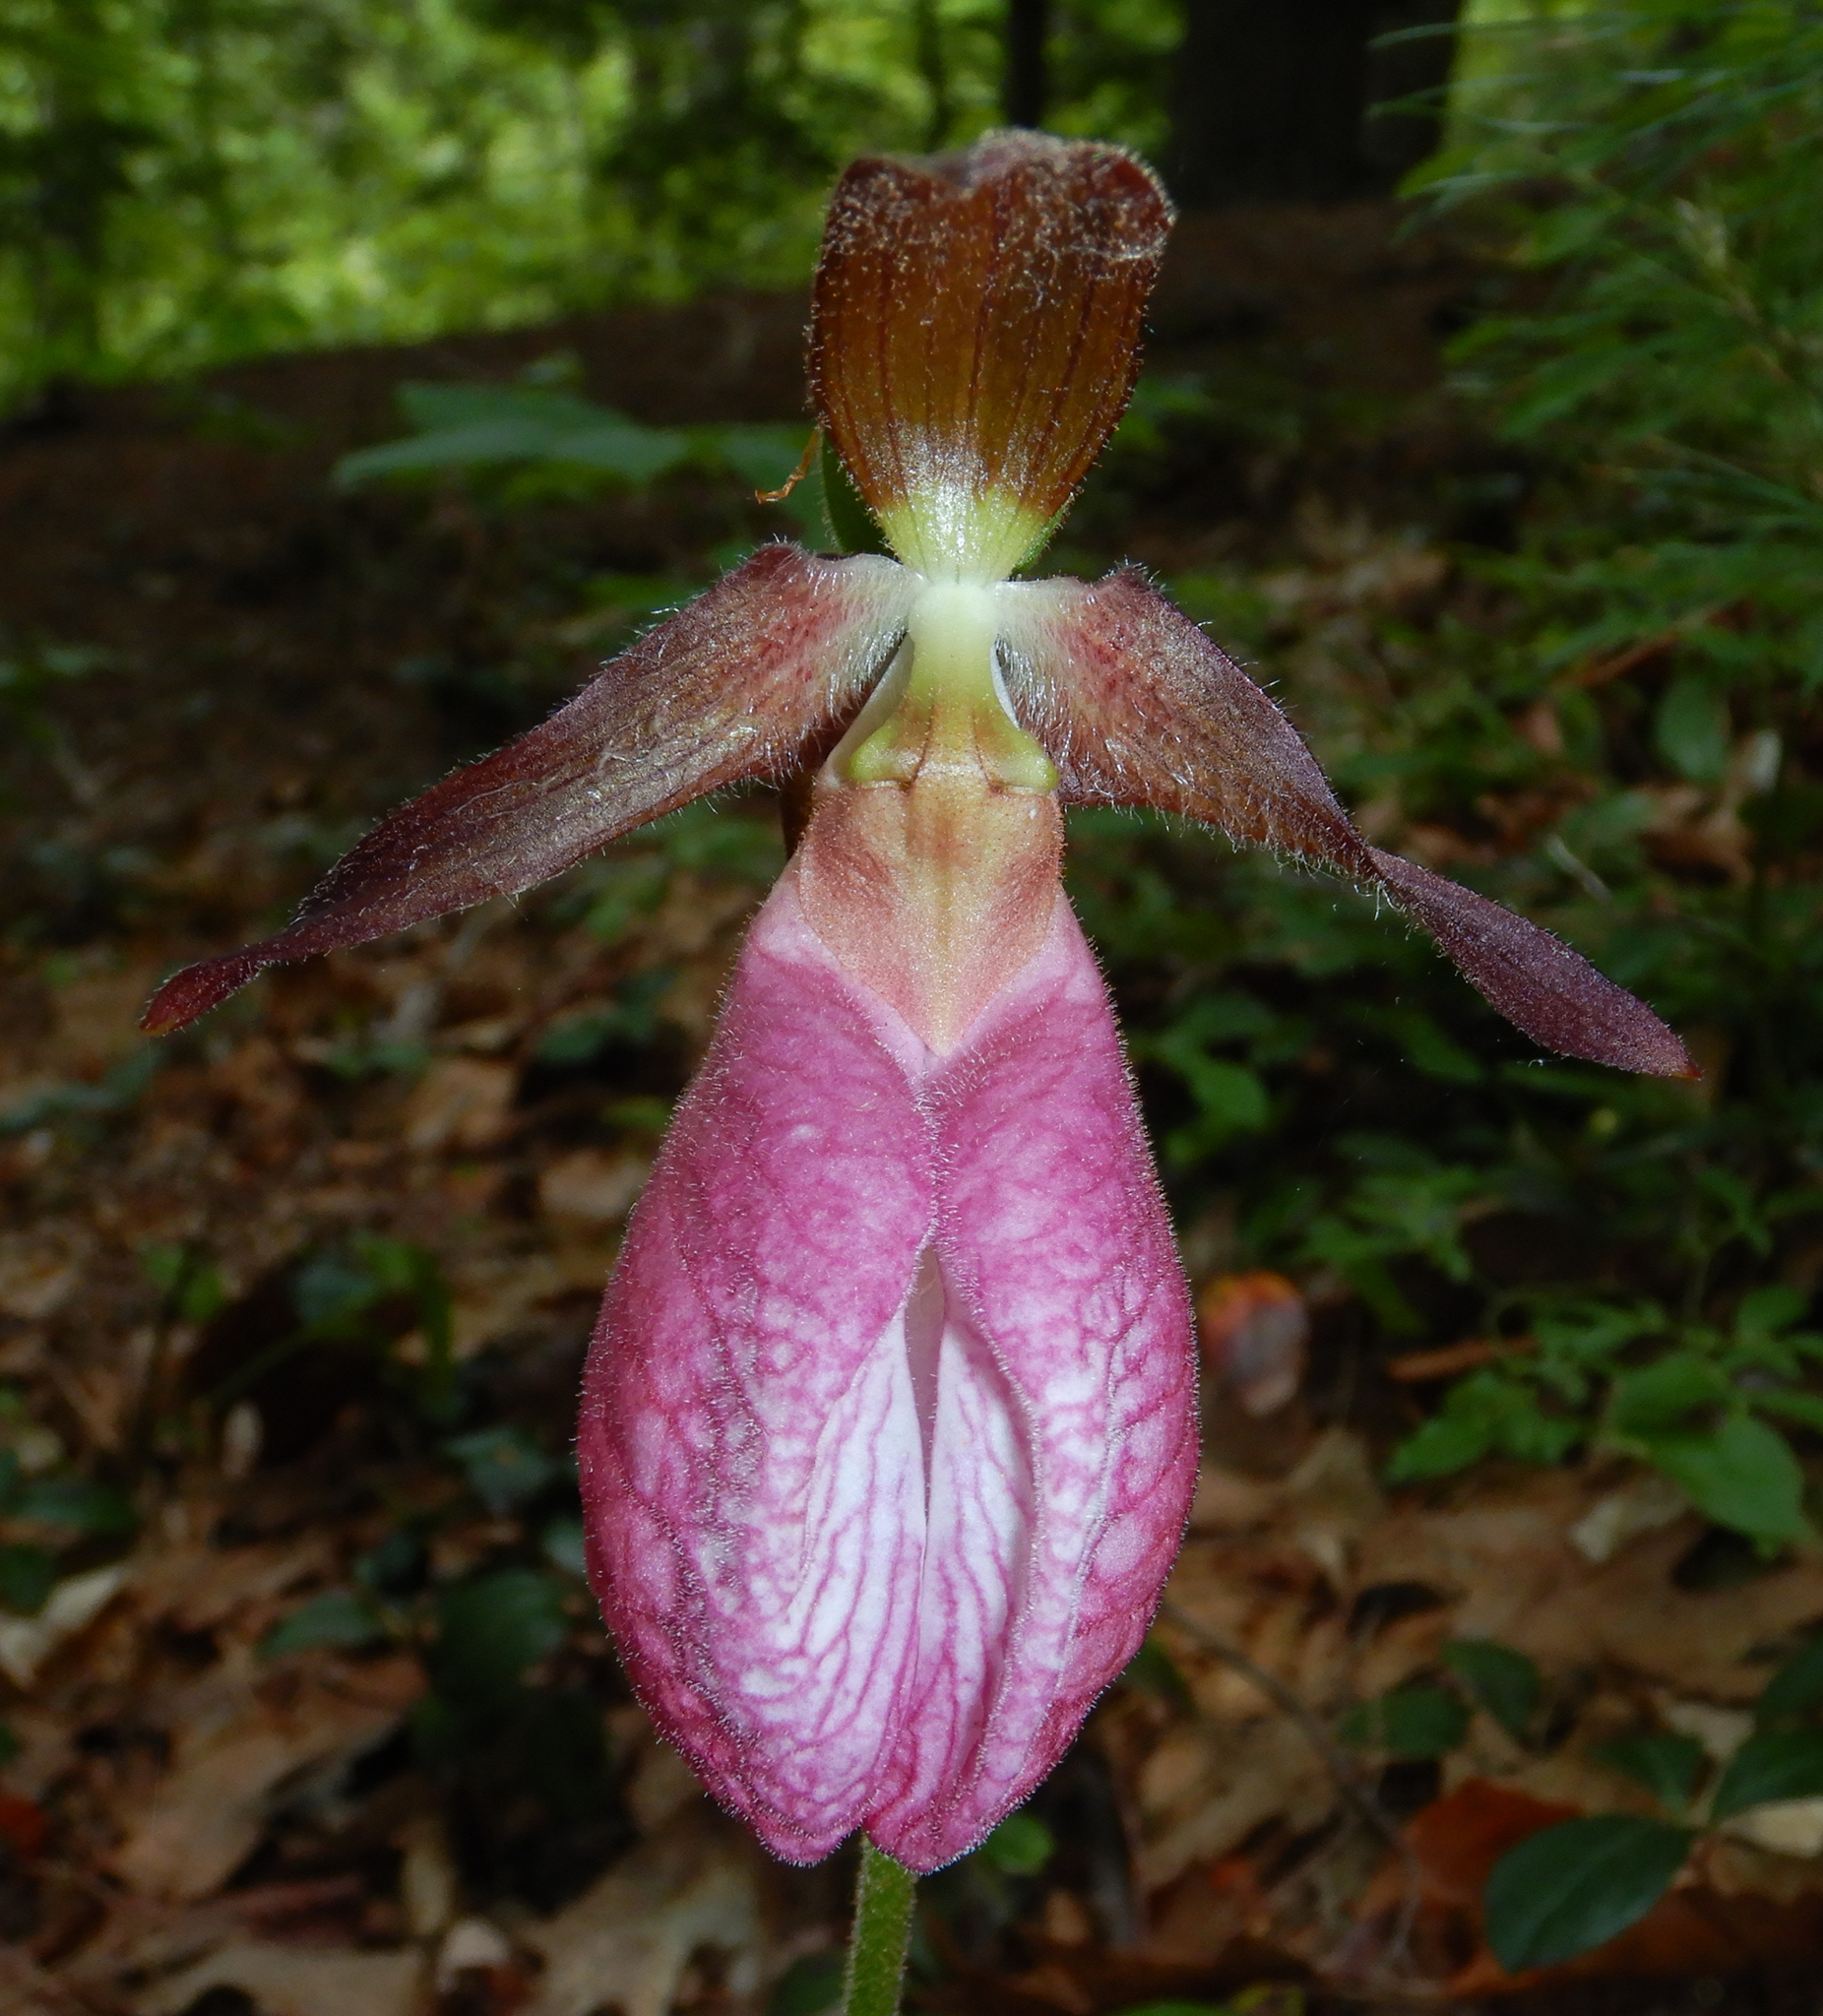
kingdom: Plantae
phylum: Tracheophyta
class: Liliopsida
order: Asparagales
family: Orchidaceae
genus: Cypripedium
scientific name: Cypripedium acaule
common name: Pink lady's-slipper
